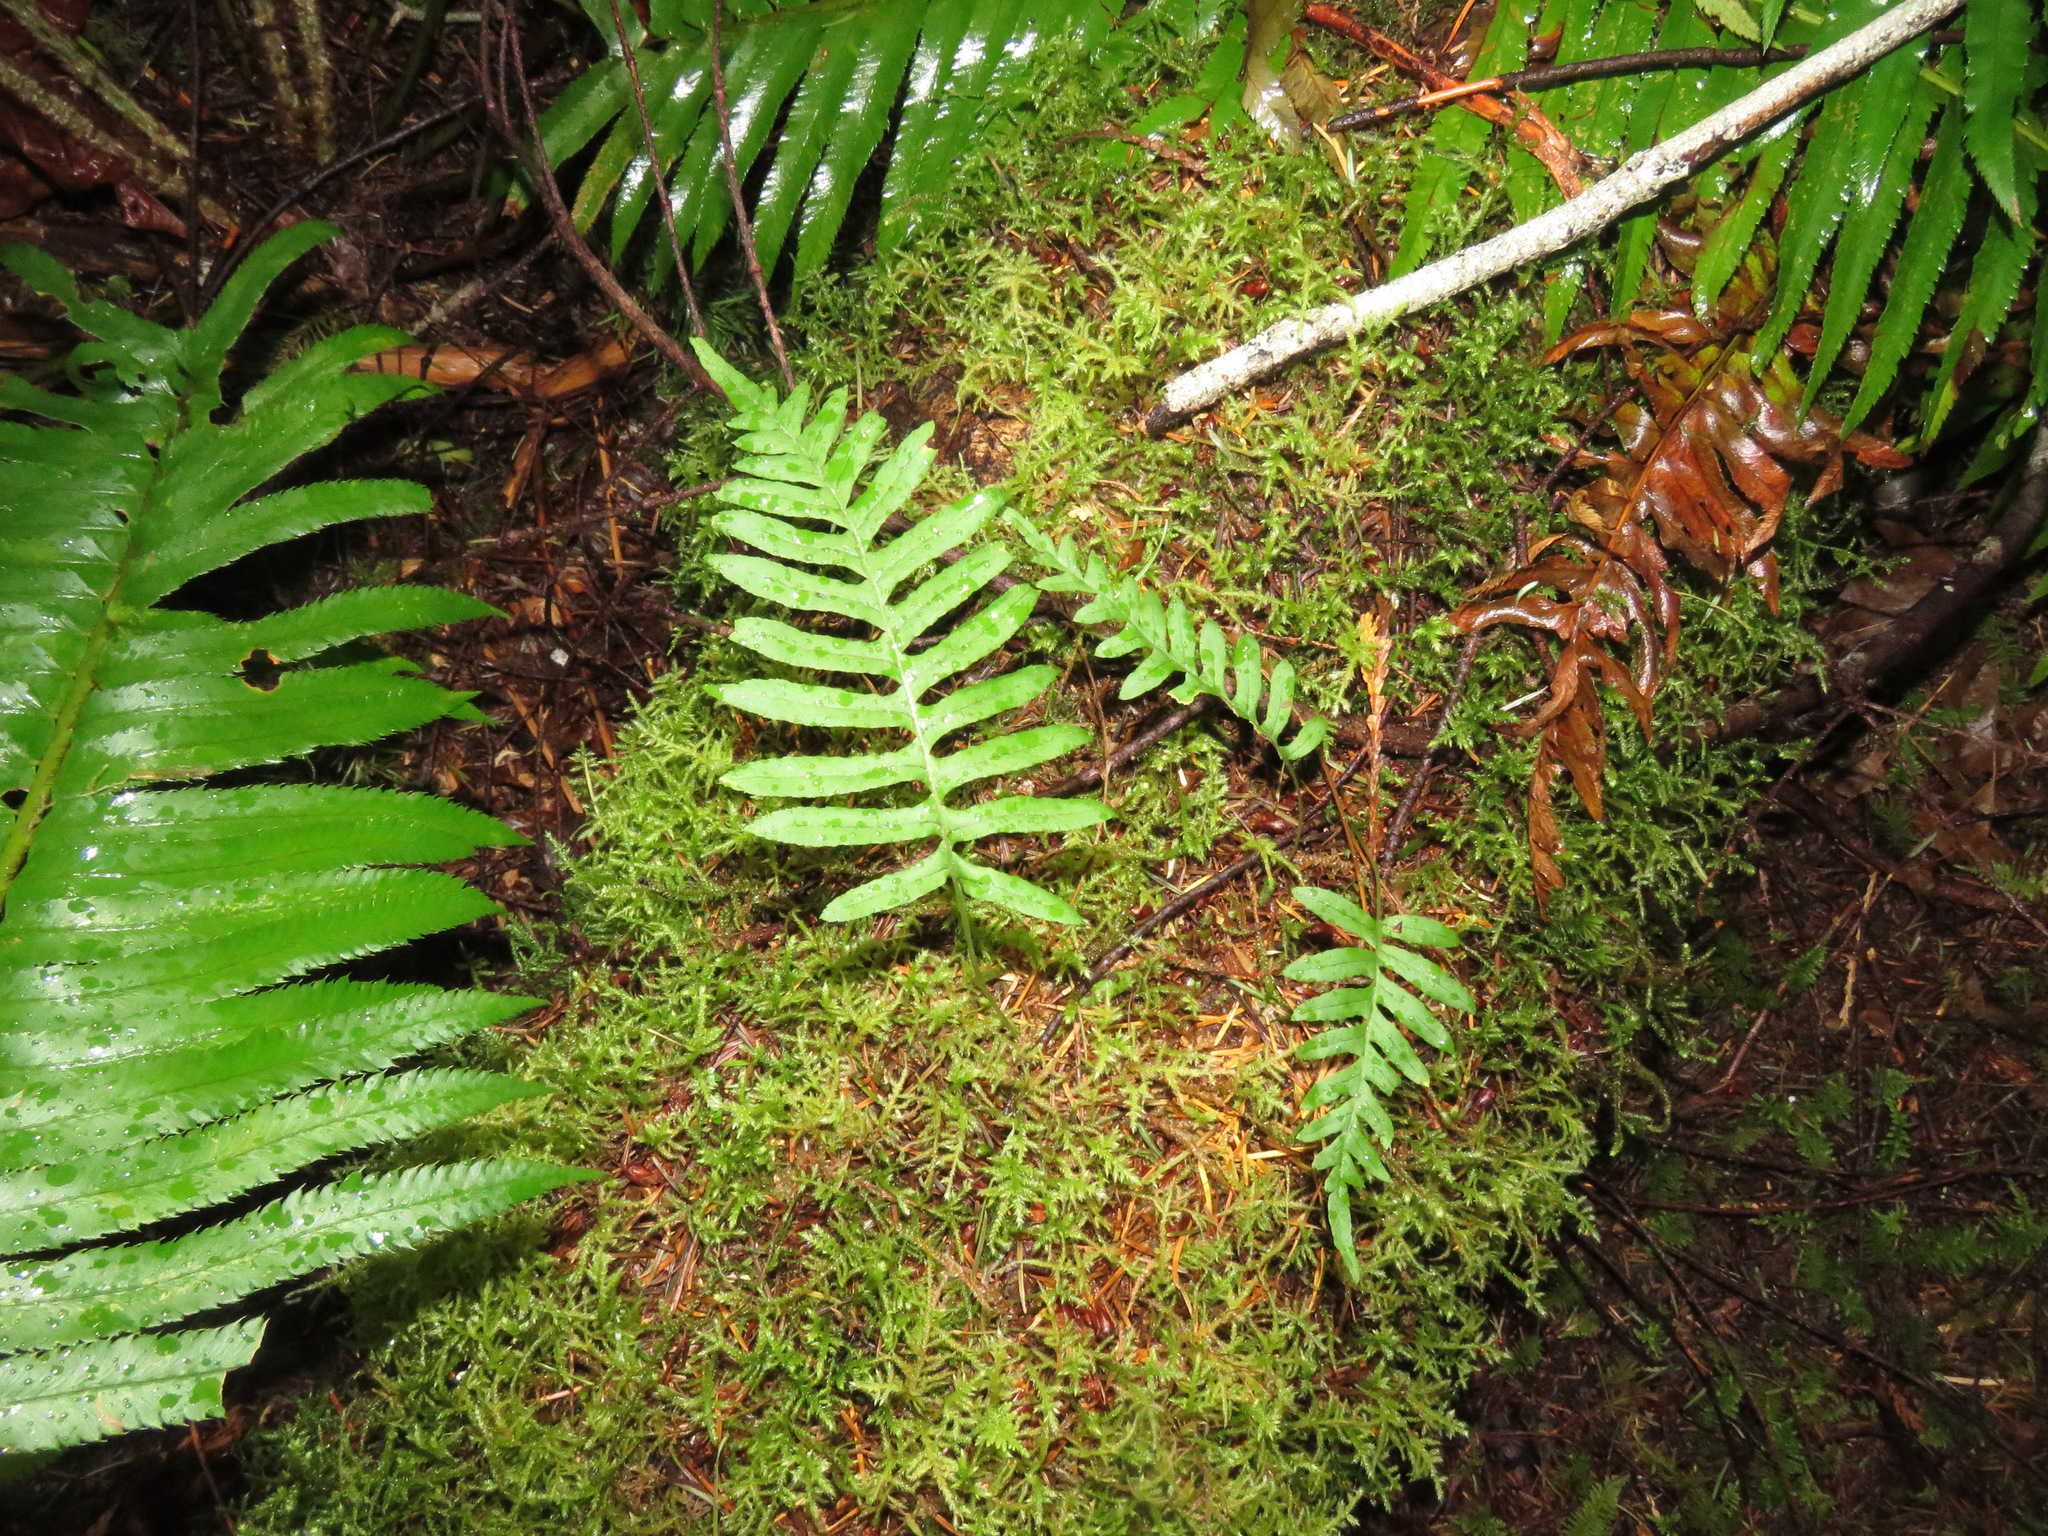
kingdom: Plantae
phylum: Tracheophyta
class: Polypodiopsida
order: Polypodiales
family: Polypodiaceae
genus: Polypodium
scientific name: Polypodium glycyrrhiza
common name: Licorice fern
